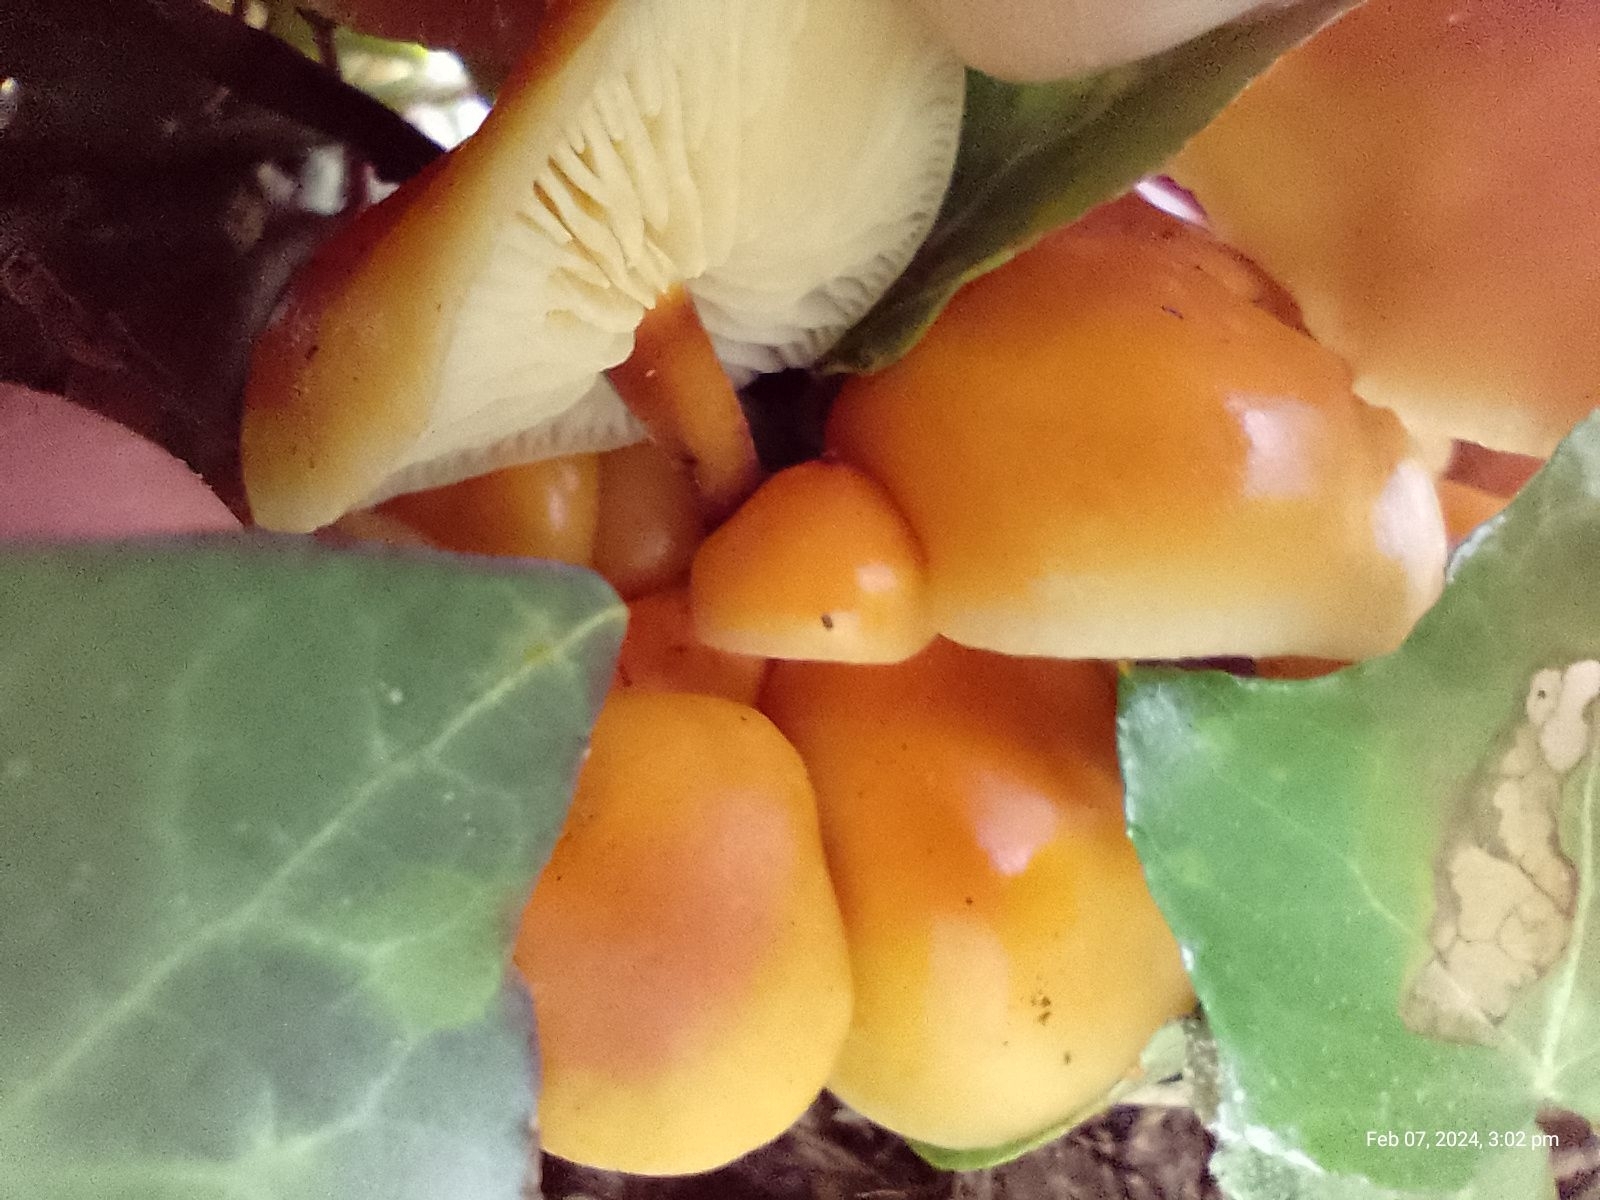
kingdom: Fungi
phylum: Basidiomycota
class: Agaricomycetes
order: Agaricales
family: Physalacriaceae
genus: Flammulina
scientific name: Flammulina
